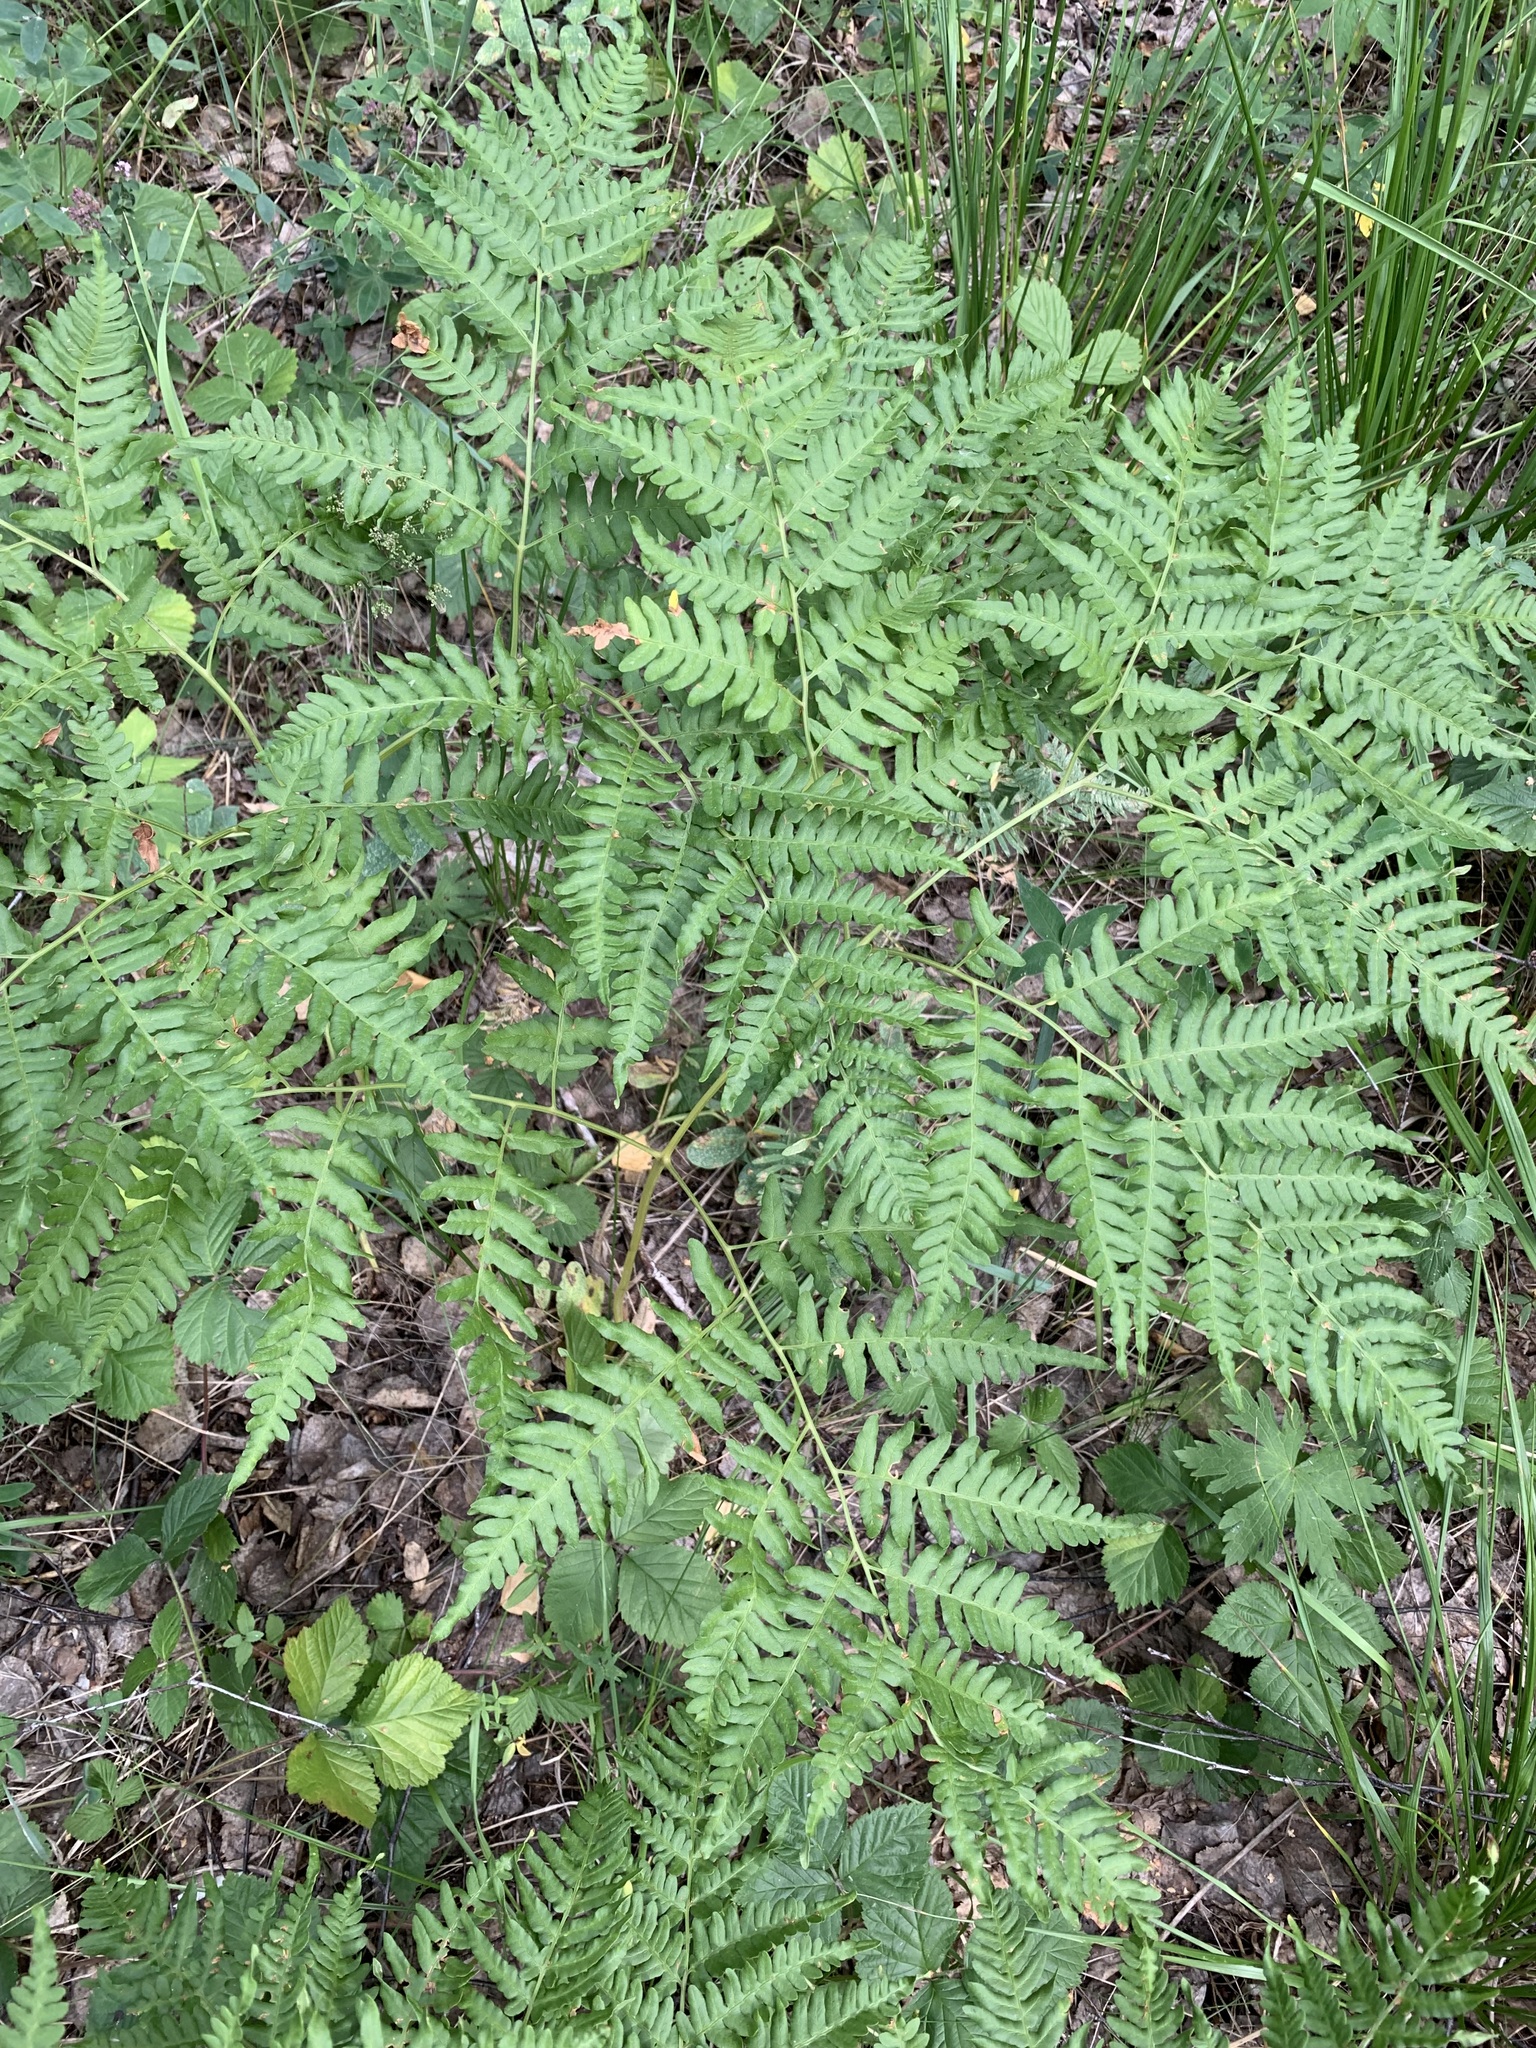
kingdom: Plantae
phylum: Tracheophyta
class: Polypodiopsida
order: Polypodiales
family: Dennstaedtiaceae
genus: Pteridium
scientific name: Pteridium aquilinum
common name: Bracken
